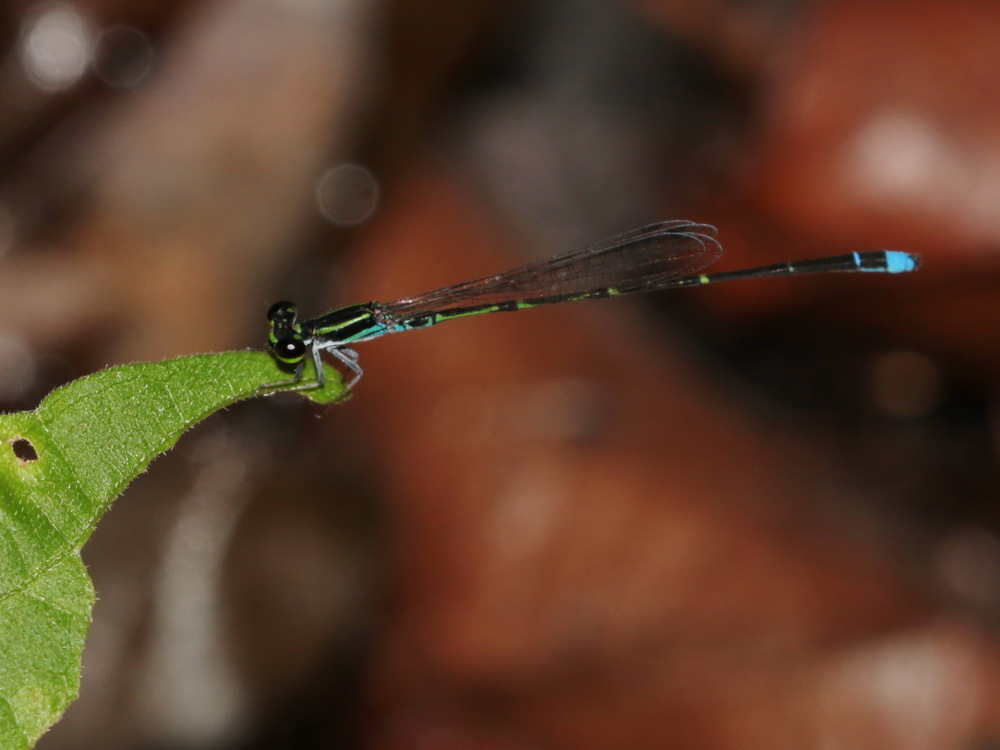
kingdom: Animalia
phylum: Arthropoda
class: Insecta
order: Odonata
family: Coenagrionidae
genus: Mortonagrion
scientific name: Mortonagrion aborense
